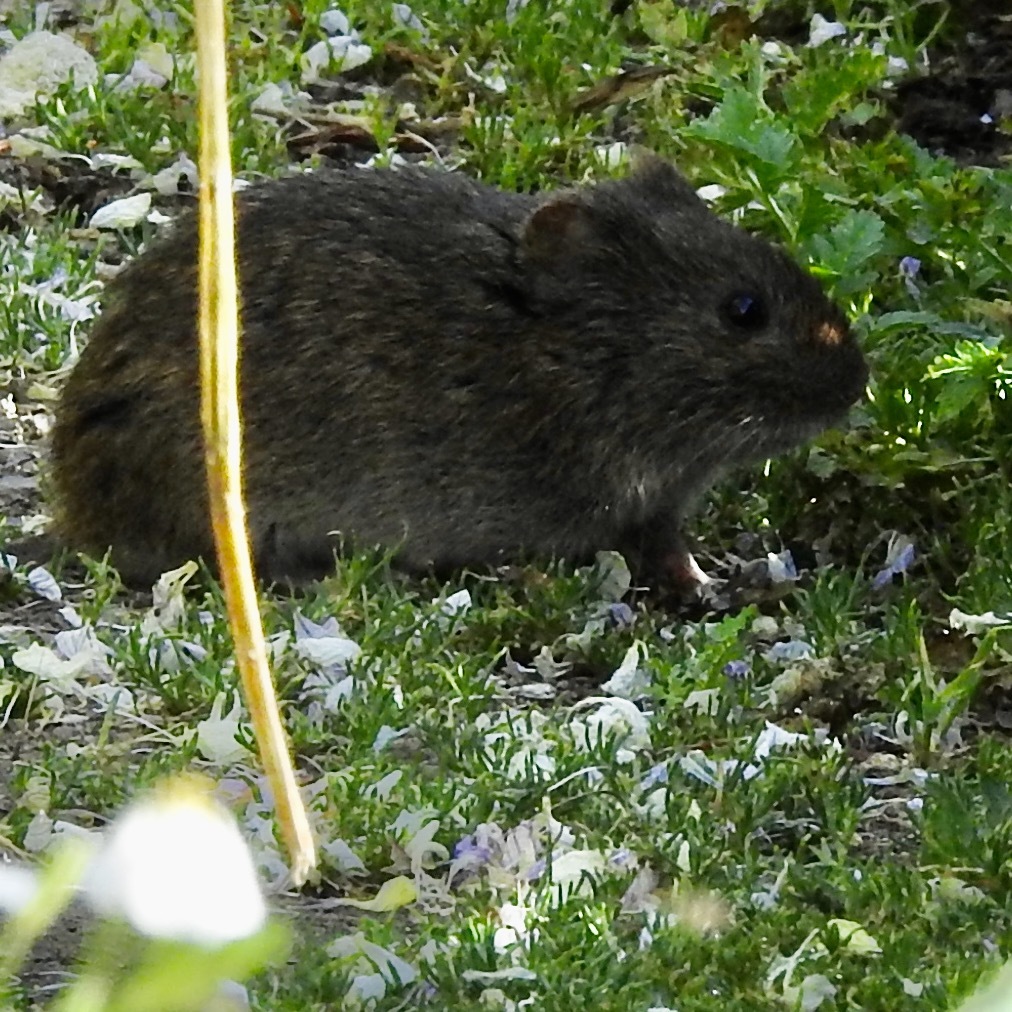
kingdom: Animalia
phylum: Chordata
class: Mammalia
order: Rodentia
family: Cricetidae
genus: Microtus
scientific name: Microtus californicus
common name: California vole
